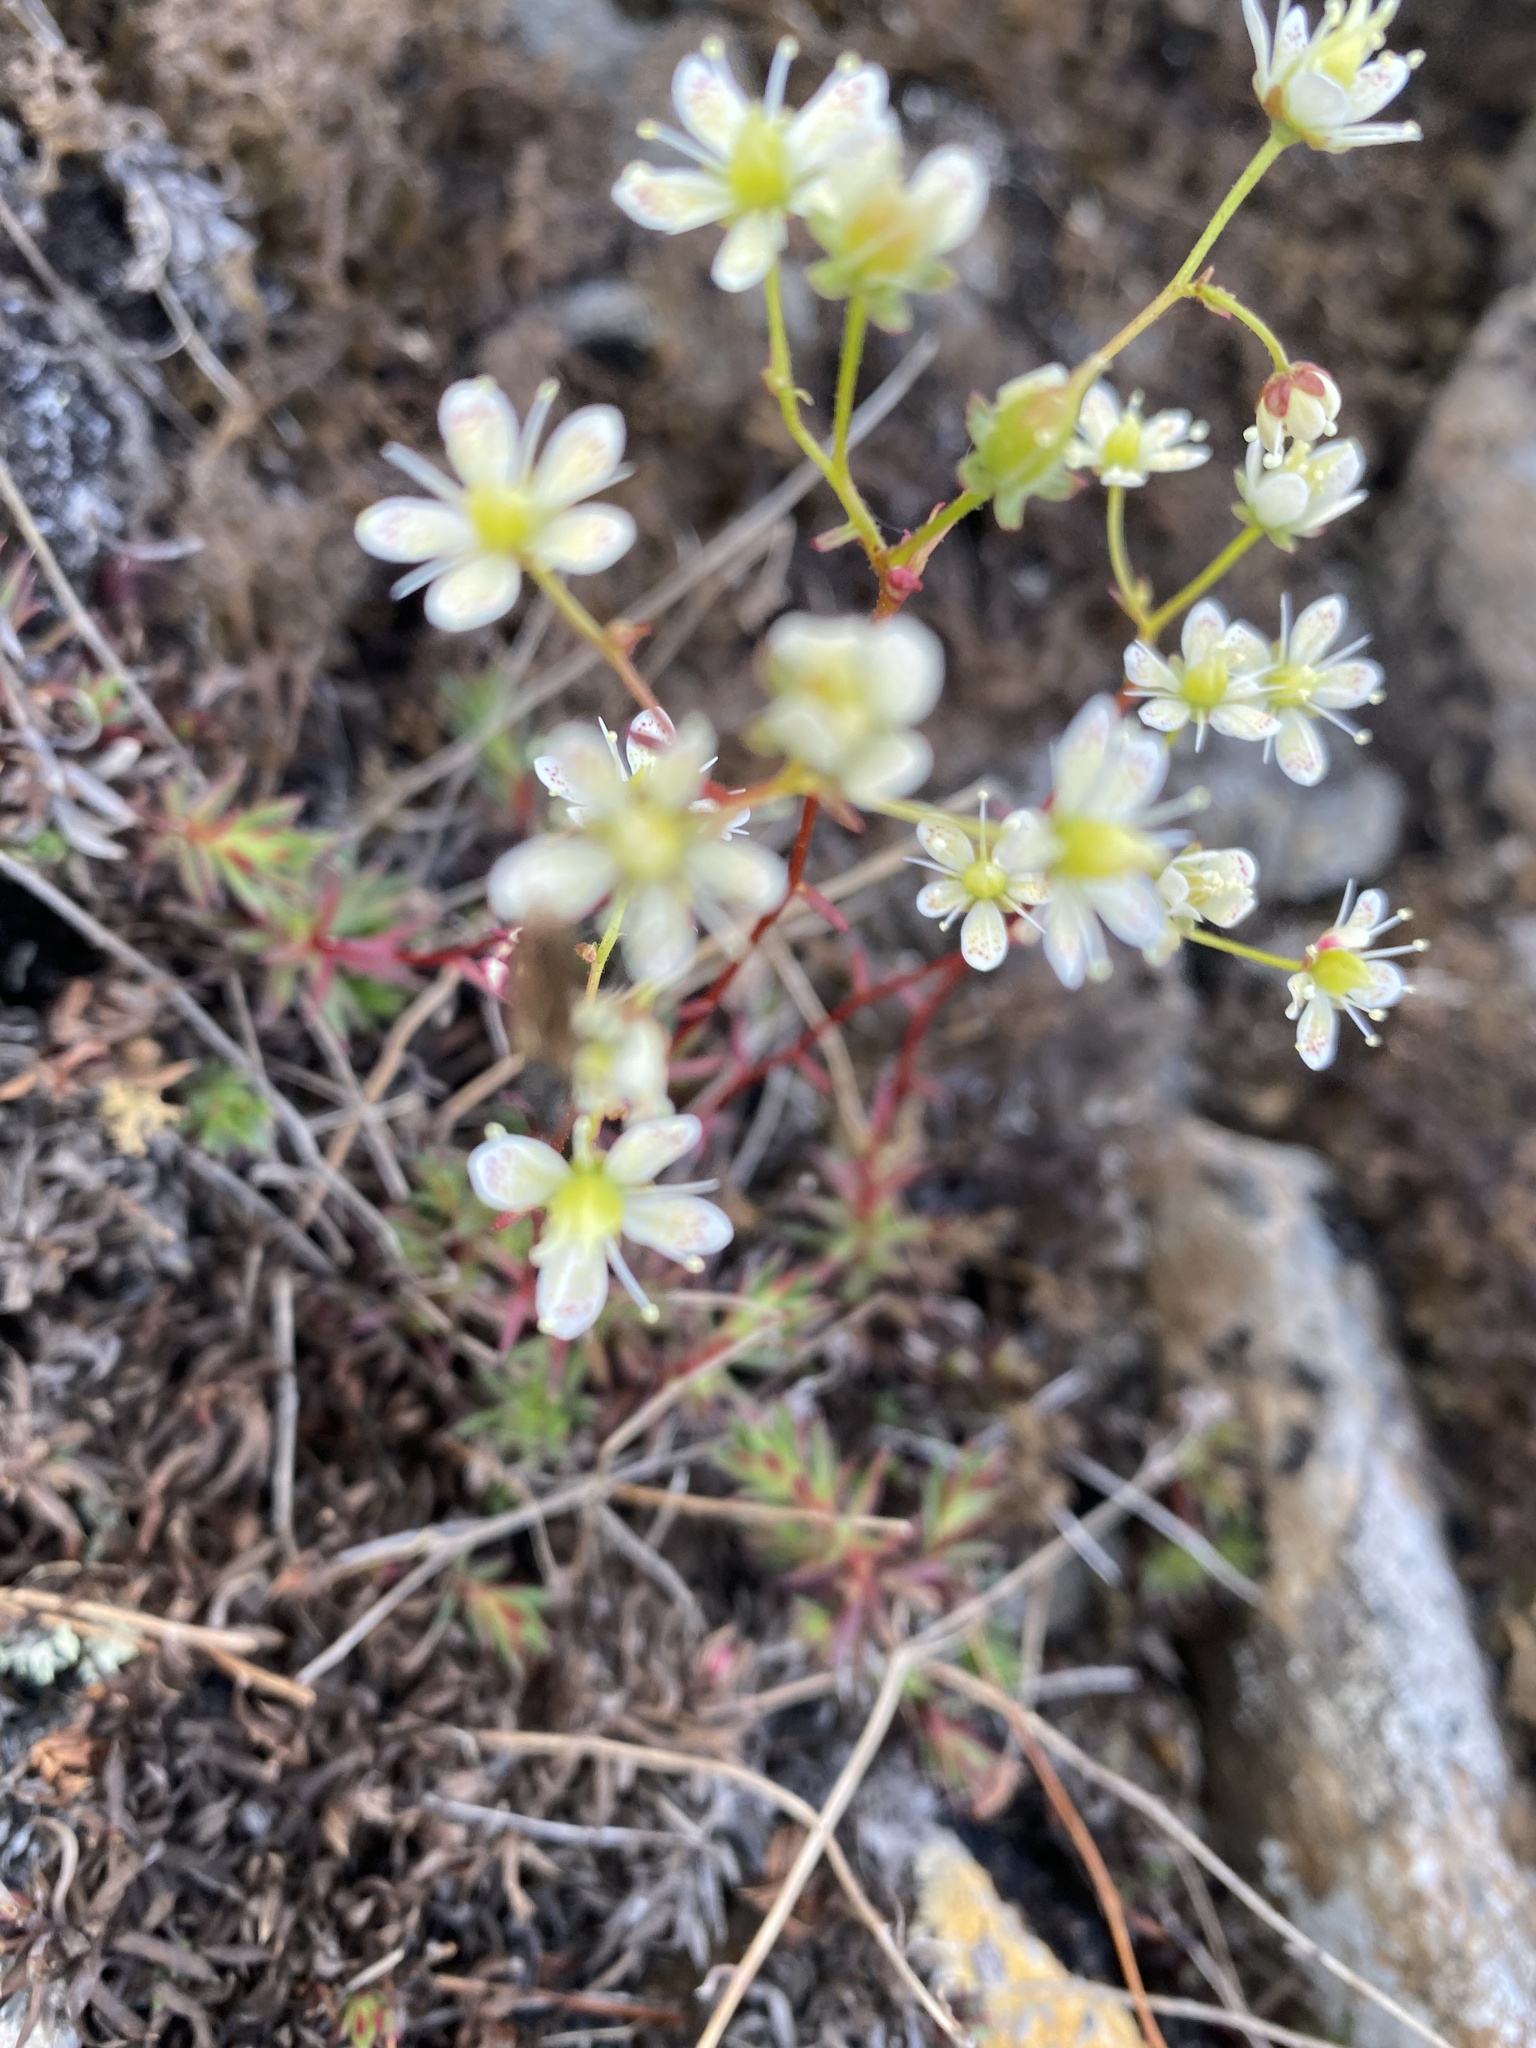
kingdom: Plantae
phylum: Tracheophyta
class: Magnoliopsida
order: Saxifragales
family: Saxifragaceae
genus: Saxifraga
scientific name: Saxifraga
